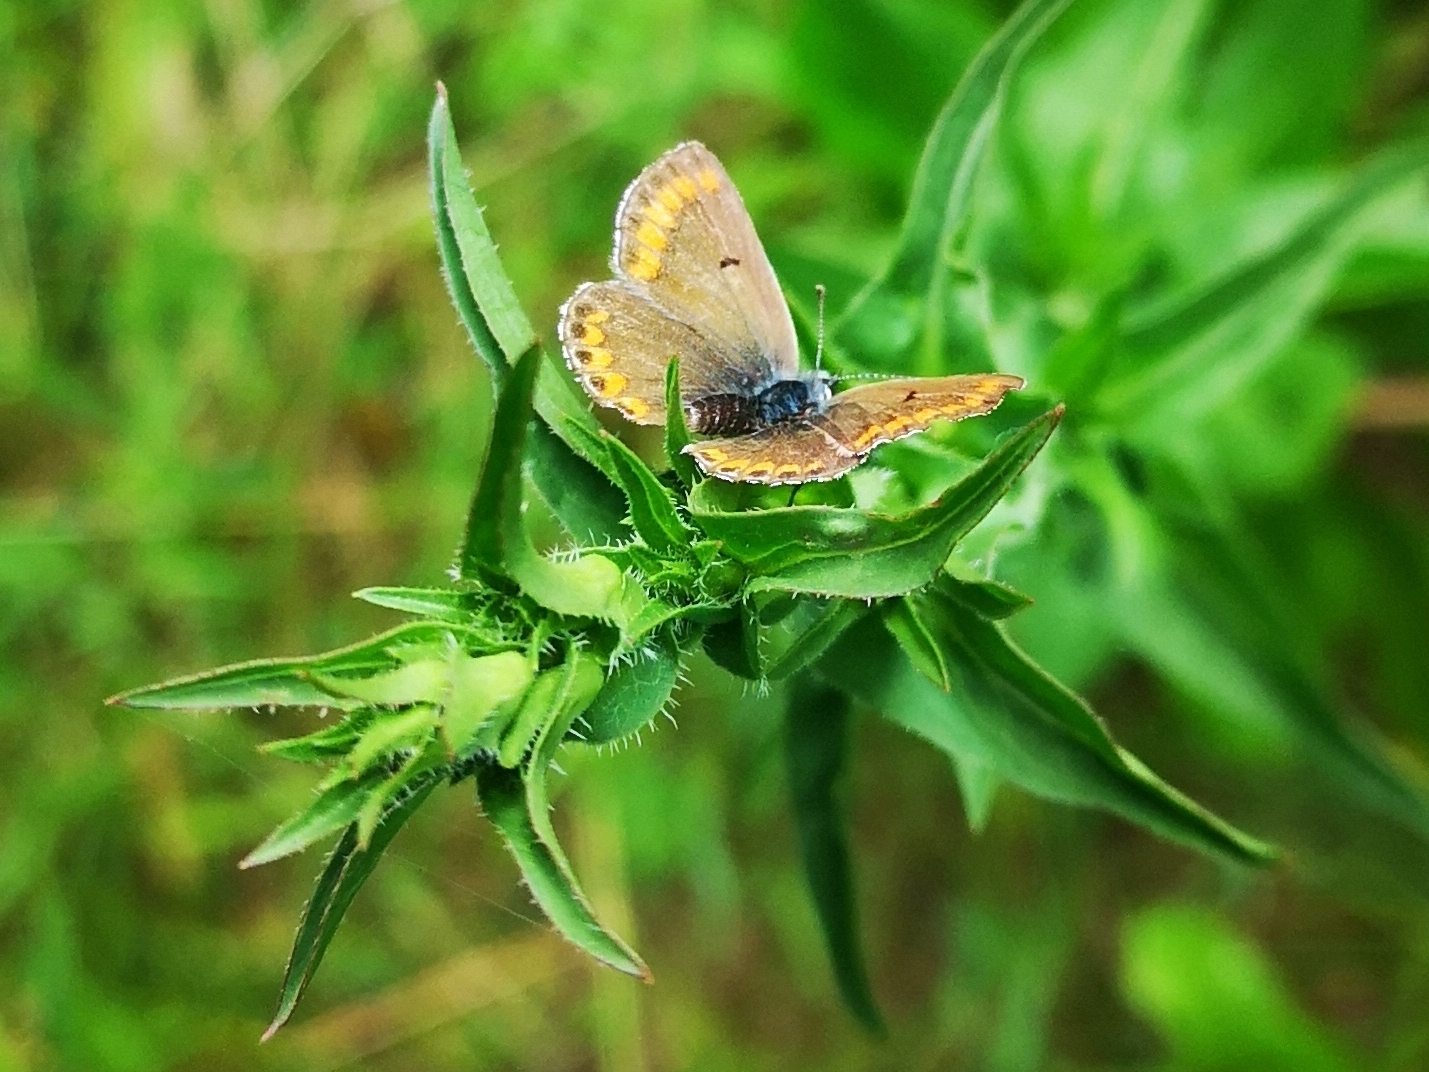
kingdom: Animalia
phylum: Arthropoda
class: Insecta
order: Lepidoptera
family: Lycaenidae
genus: Aricia
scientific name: Aricia agestis
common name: Brown argus
